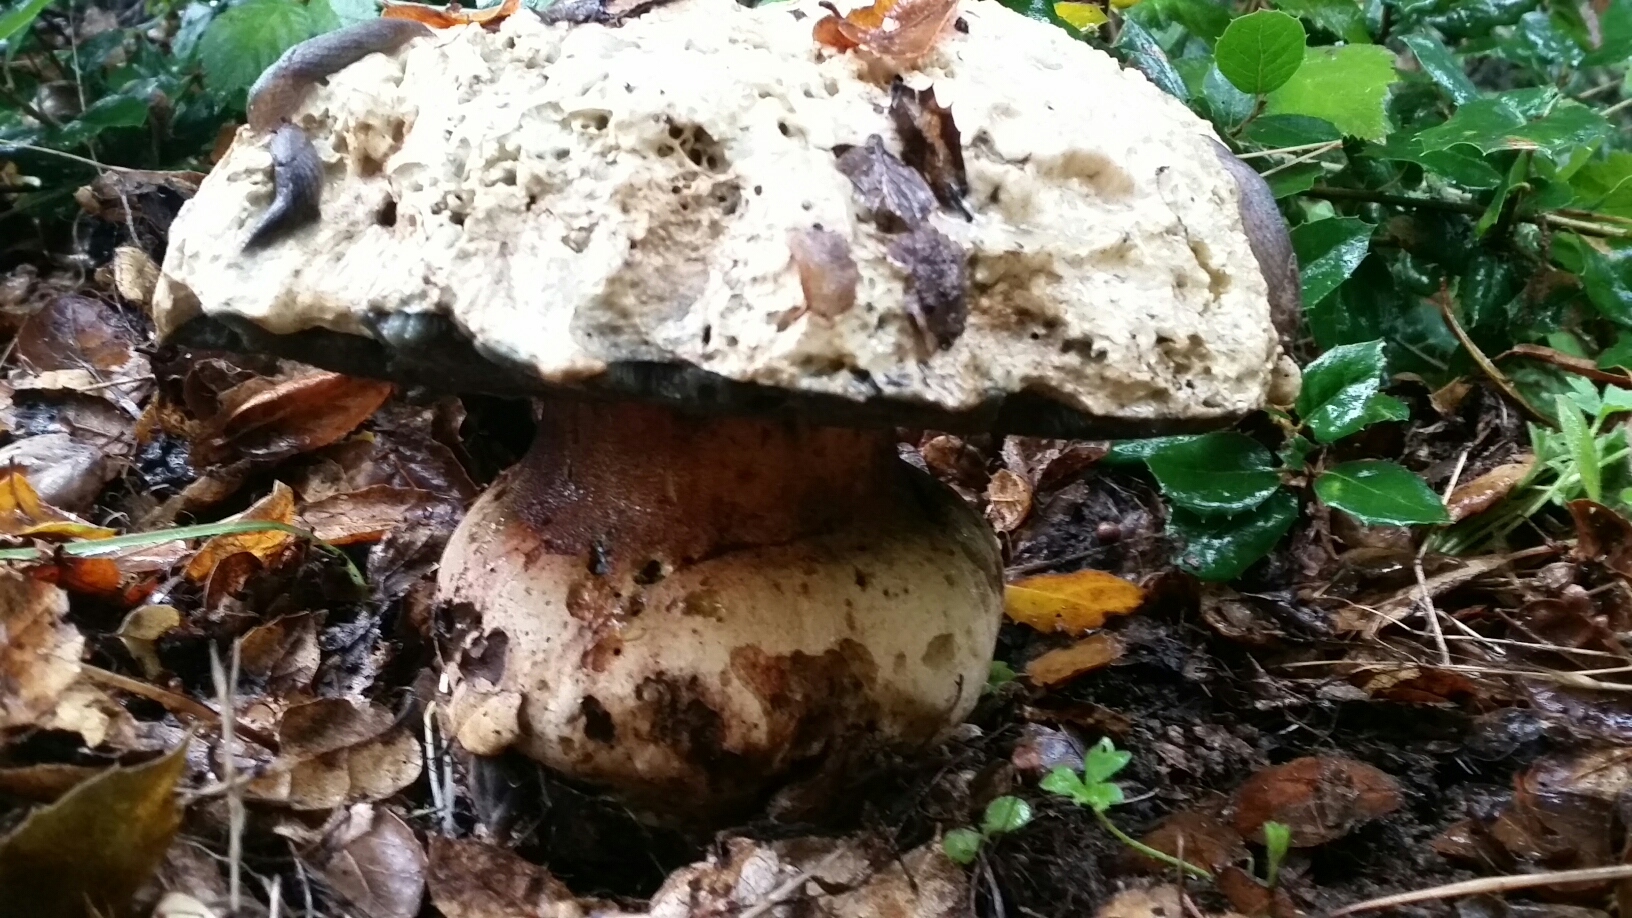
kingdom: Fungi
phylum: Basidiomycota
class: Agaricomycetes
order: Boletales
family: Boletaceae
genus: Rubroboletus
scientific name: Rubroboletus eastwoodiae
